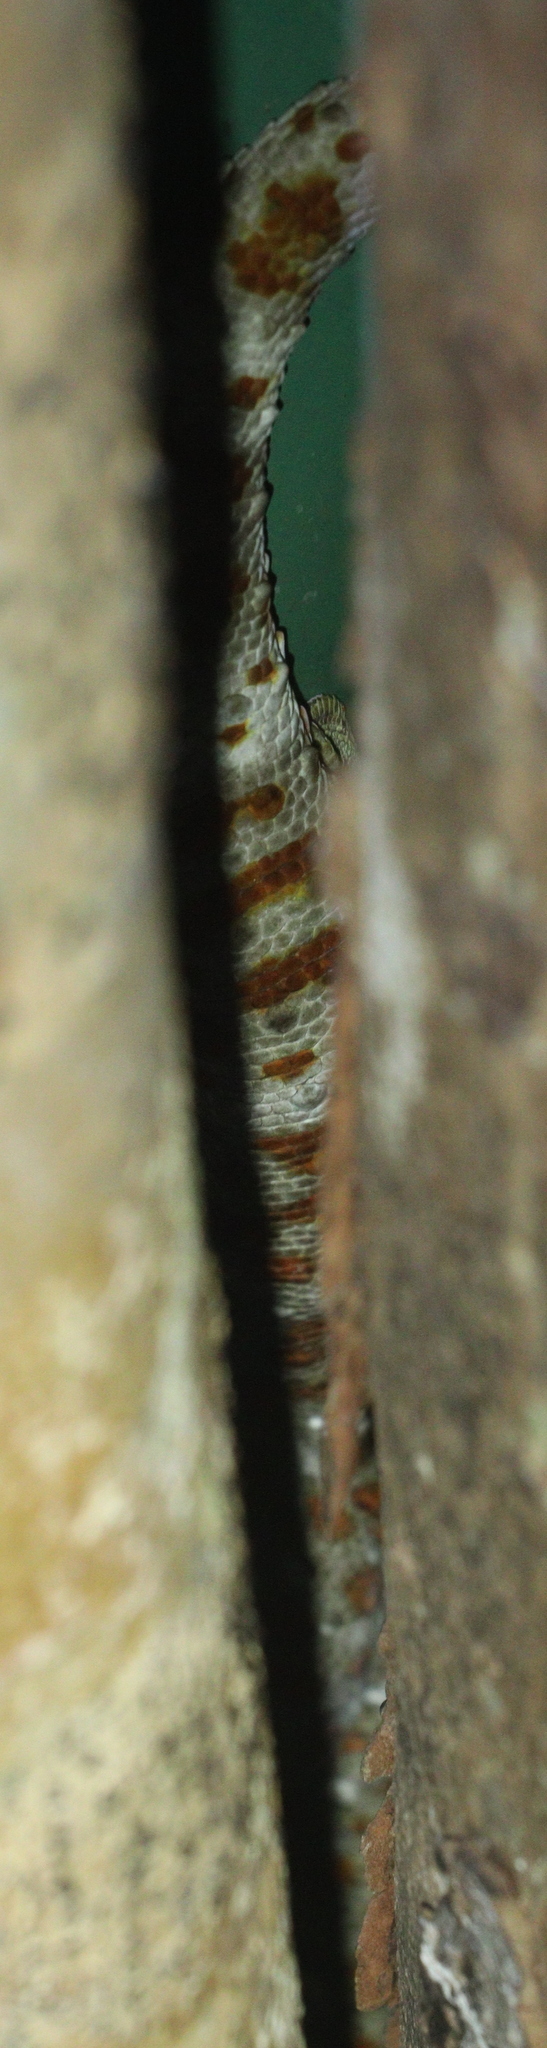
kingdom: Animalia
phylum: Chordata
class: Squamata
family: Gekkonidae
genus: Gekko
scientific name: Gekko gecko
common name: Tokay gecko
